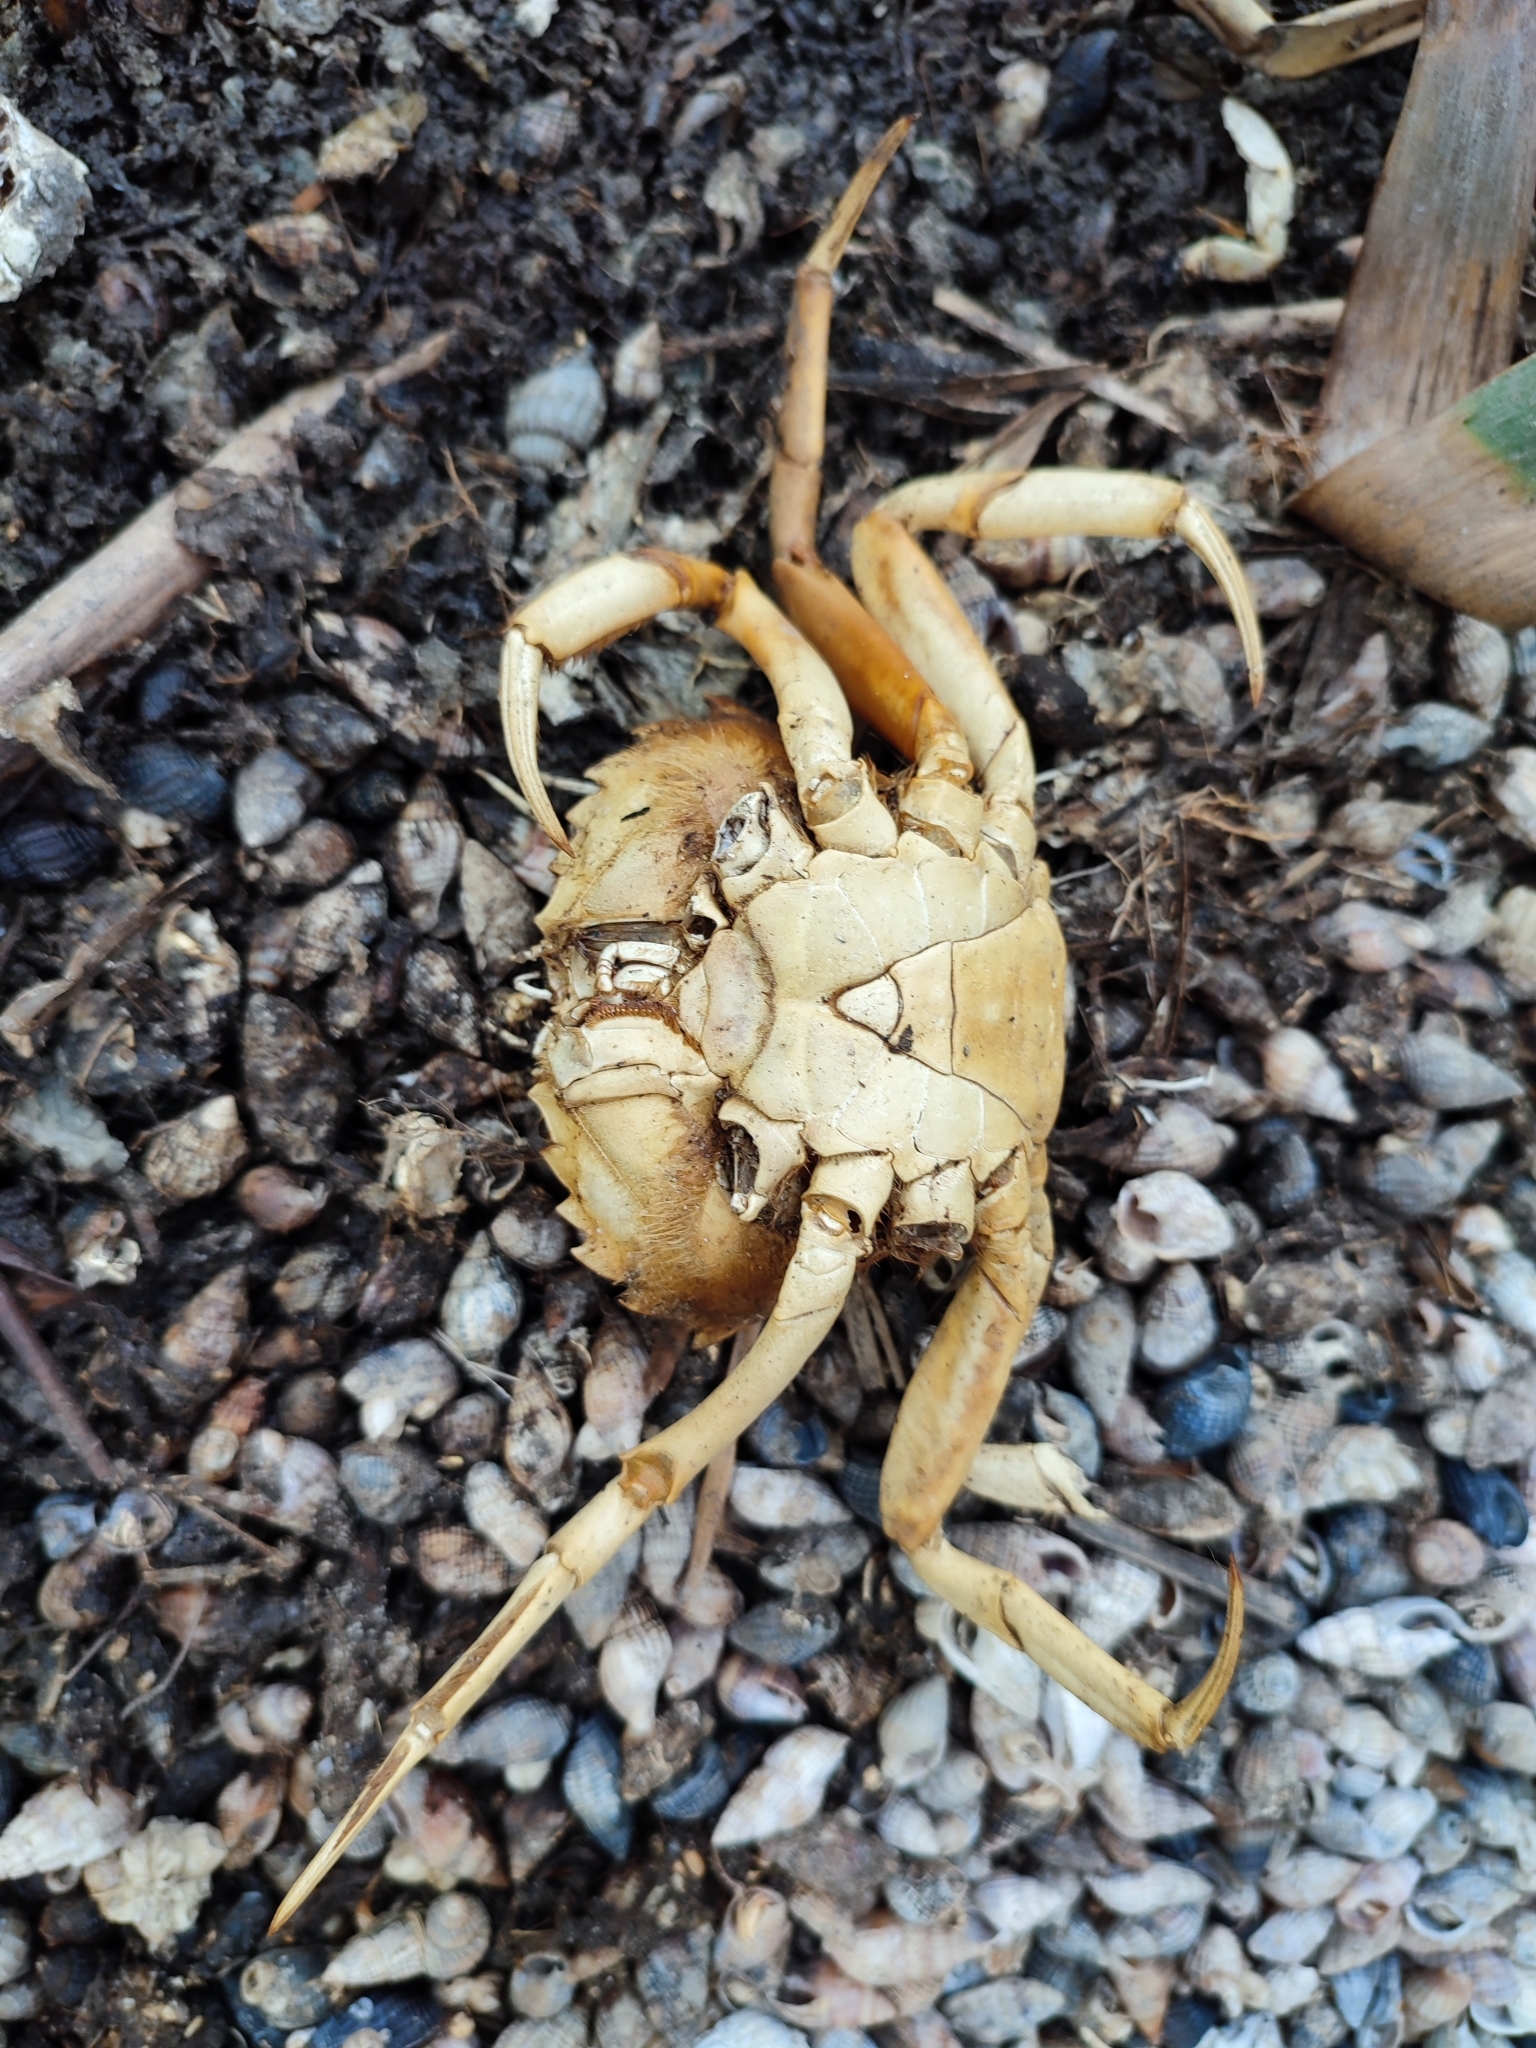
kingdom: Animalia
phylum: Arthropoda
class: Malacostraca
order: Decapoda
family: Carcinidae
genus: Carcinus
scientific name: Carcinus aestuarii
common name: Mediterranean green crab
